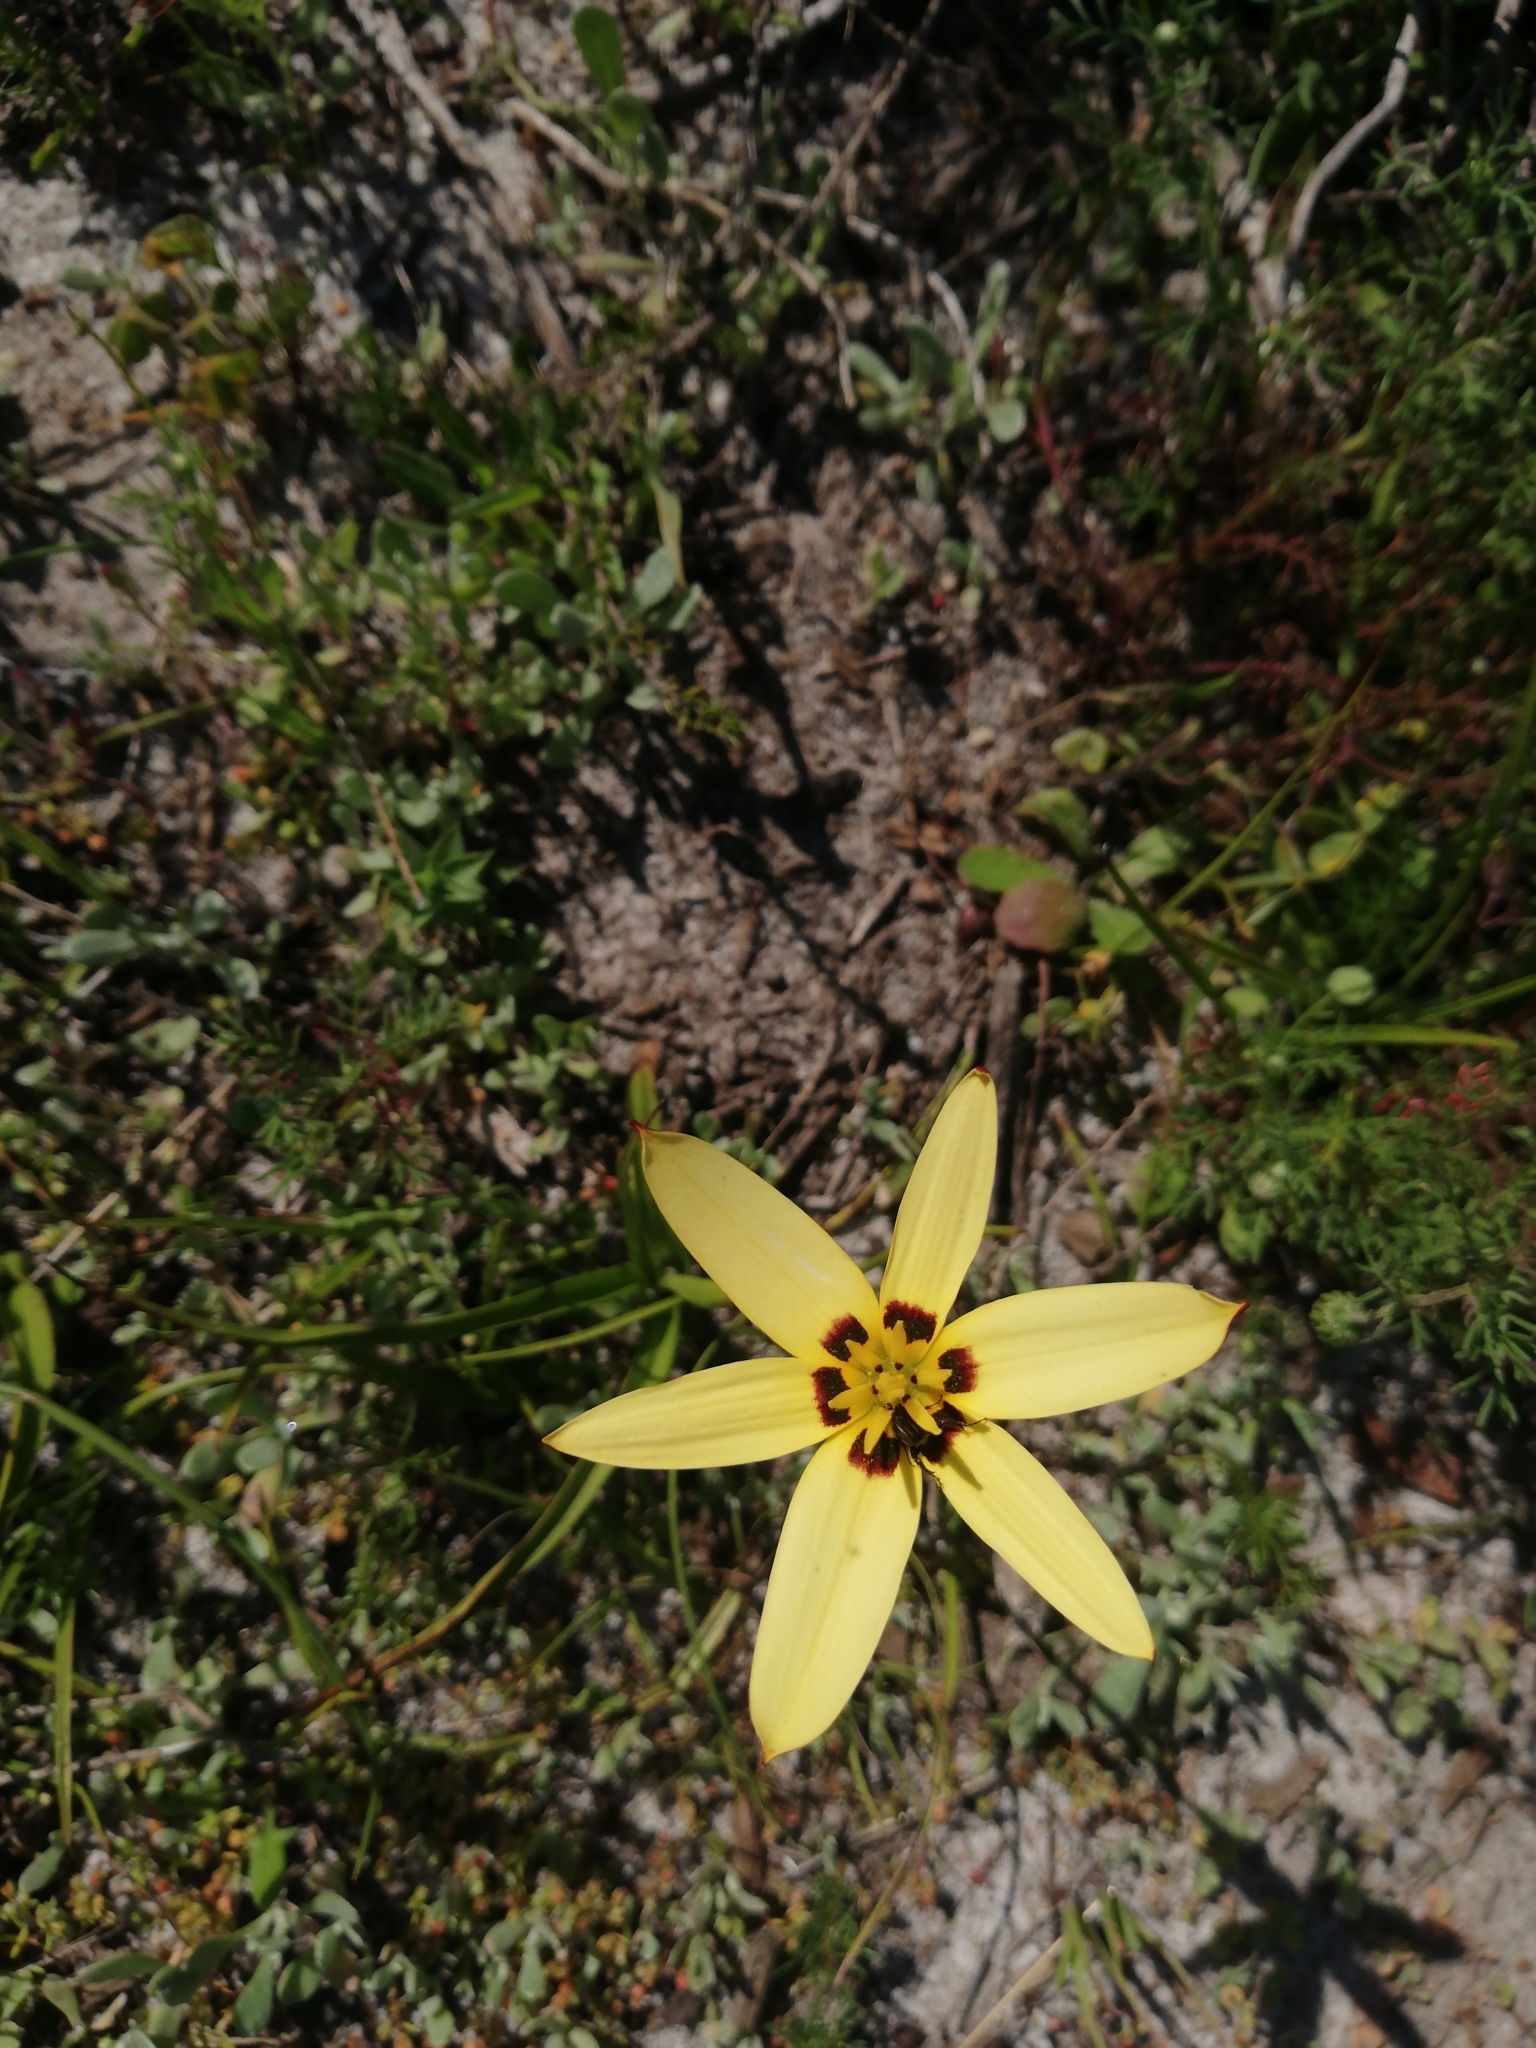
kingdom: Plantae
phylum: Tracheophyta
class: Liliopsida
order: Asparagales
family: Hypoxidaceae
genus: Pauridia
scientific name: Pauridia capensis
